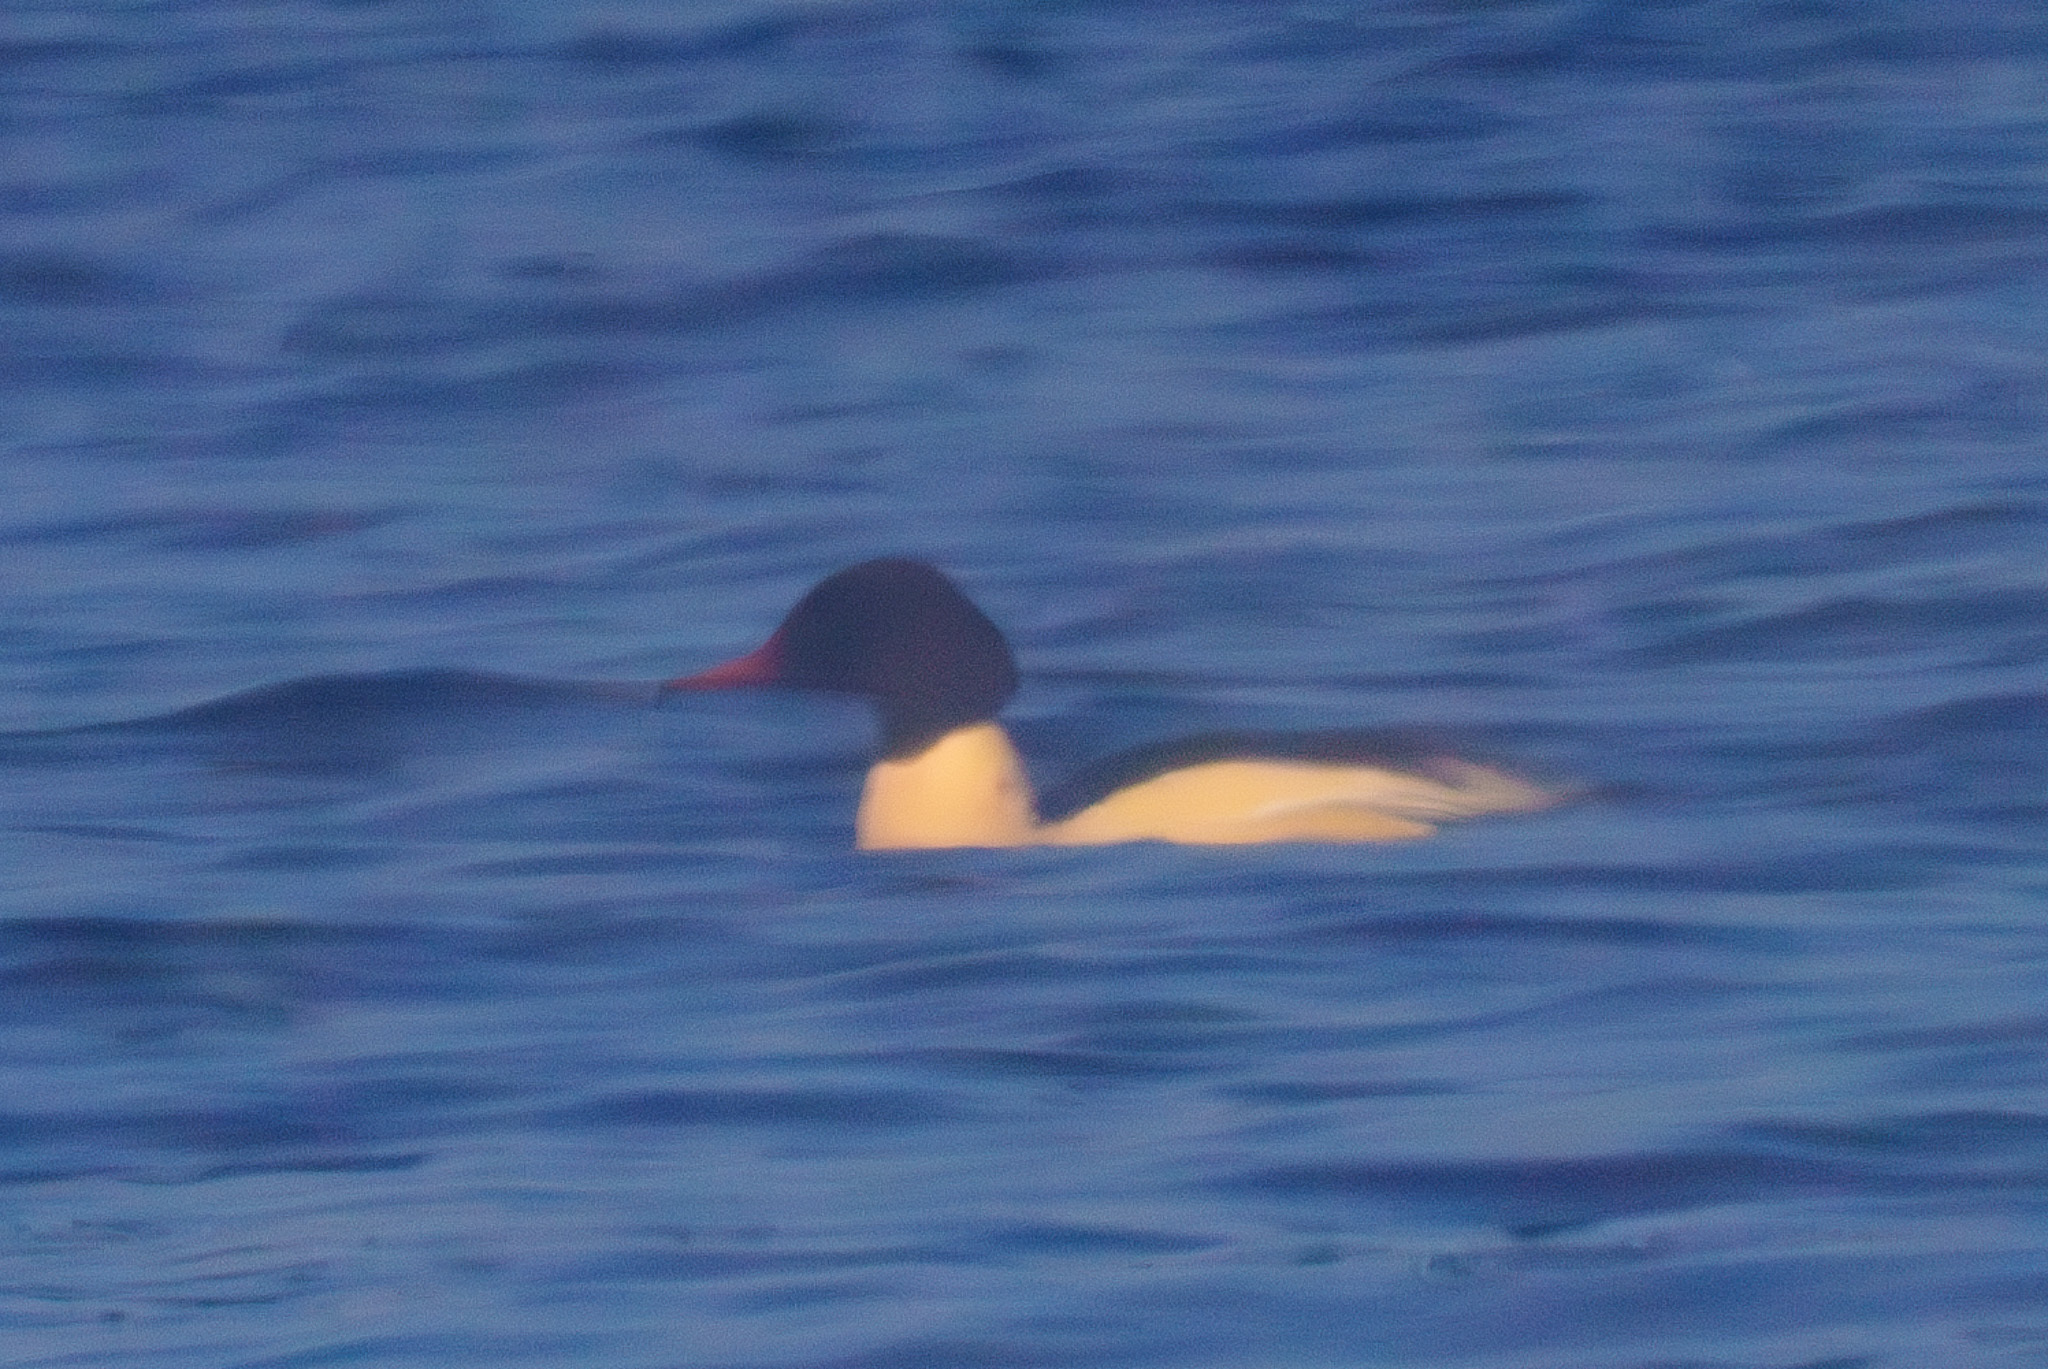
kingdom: Animalia
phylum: Chordata
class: Aves
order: Anseriformes
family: Anatidae
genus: Mergus
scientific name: Mergus merganser
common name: Common merganser
